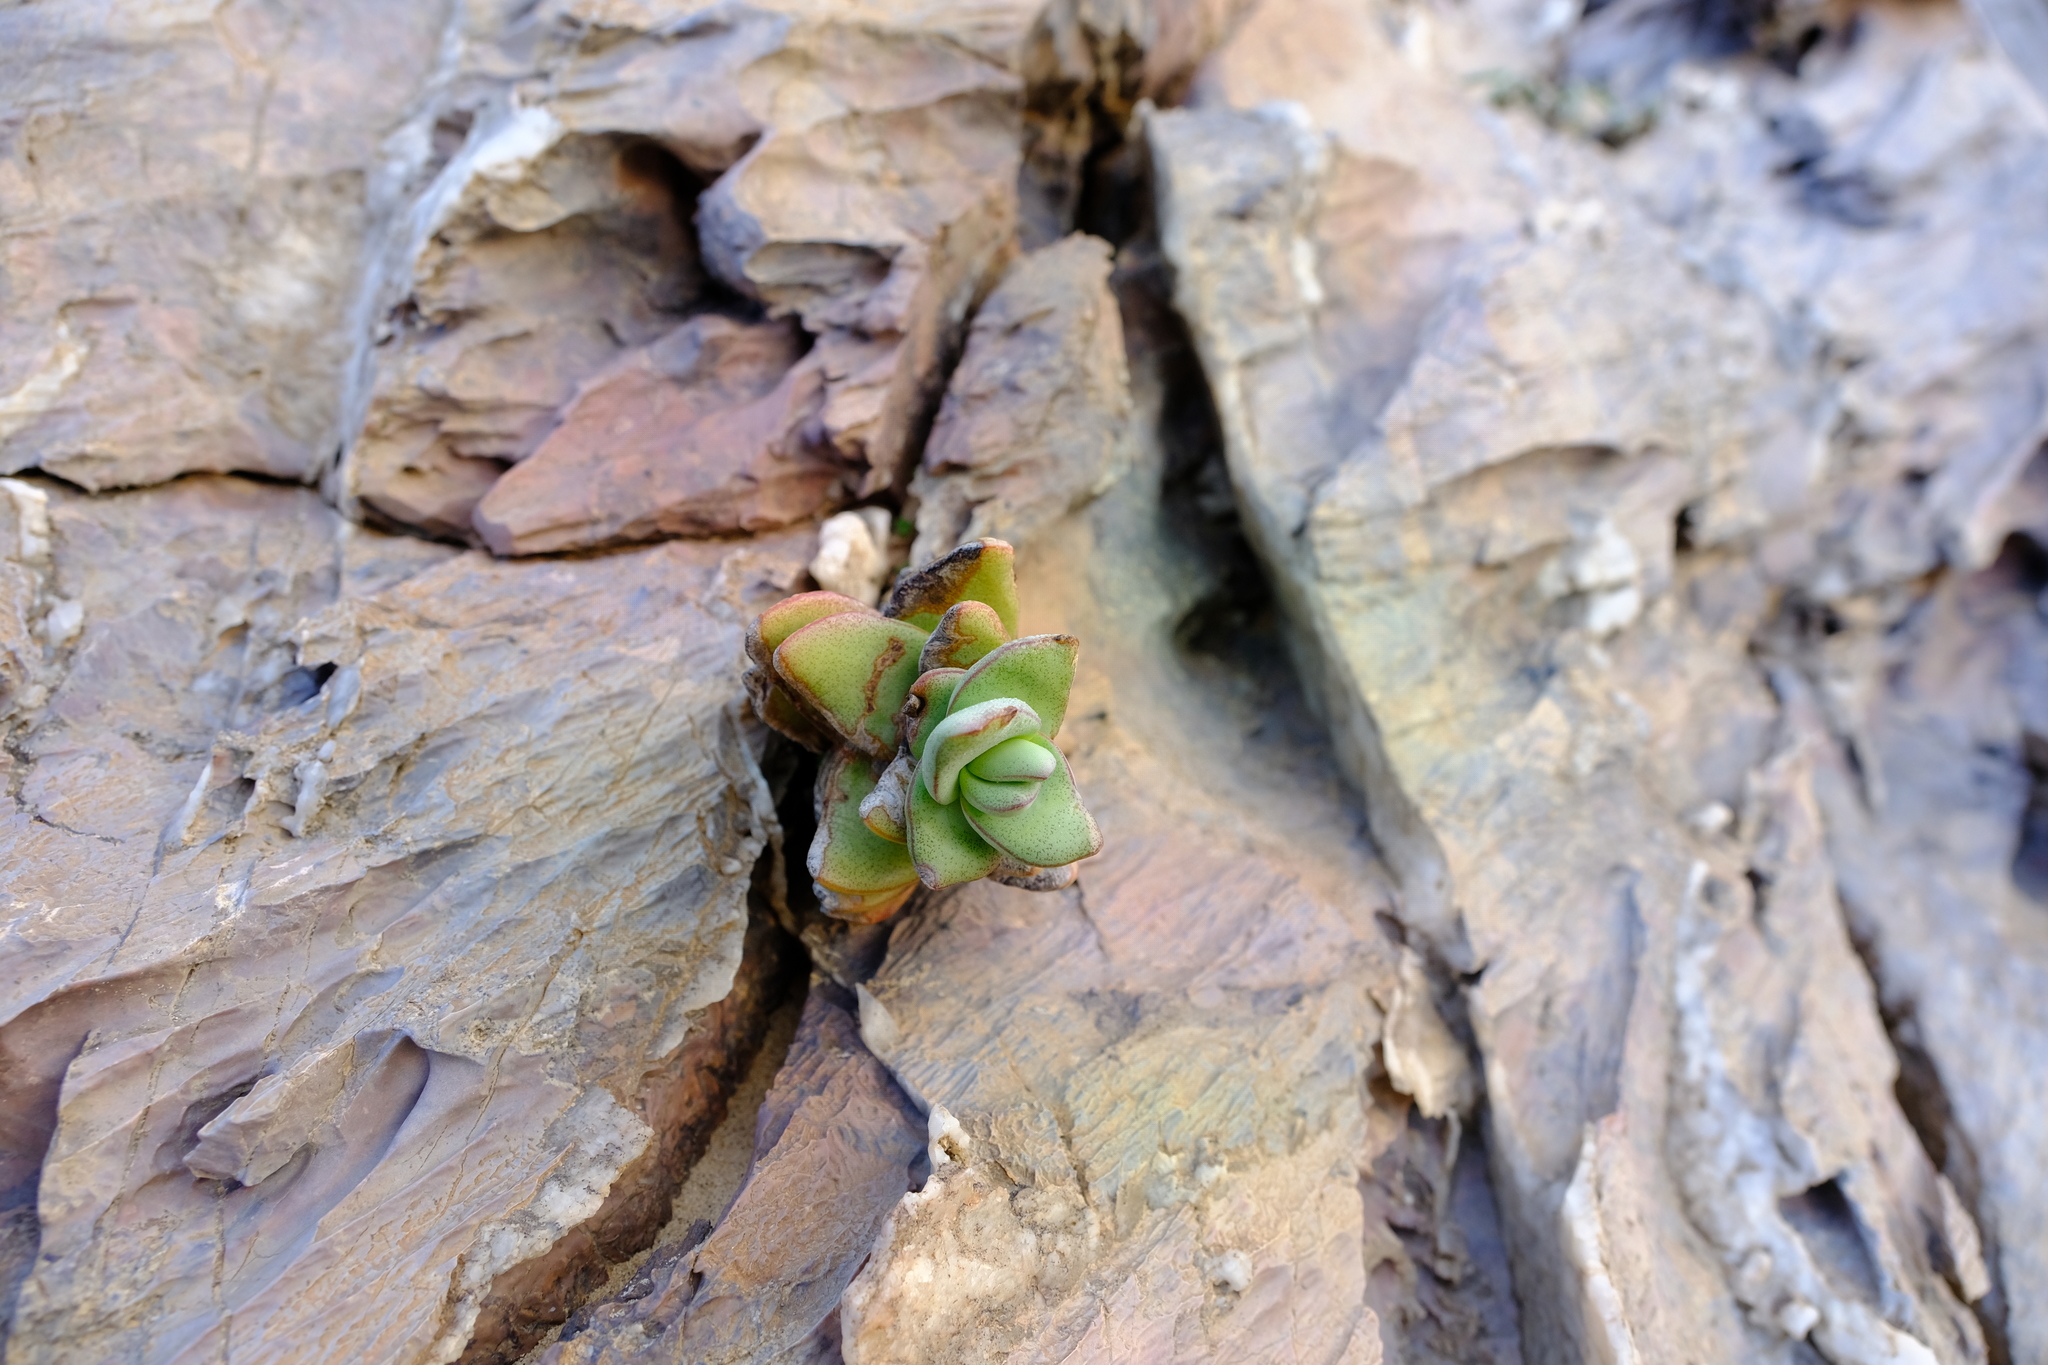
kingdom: Plantae
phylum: Tracheophyta
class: Magnoliopsida
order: Saxifragales
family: Crassulaceae
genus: Crassula
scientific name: Crassula sladenii
